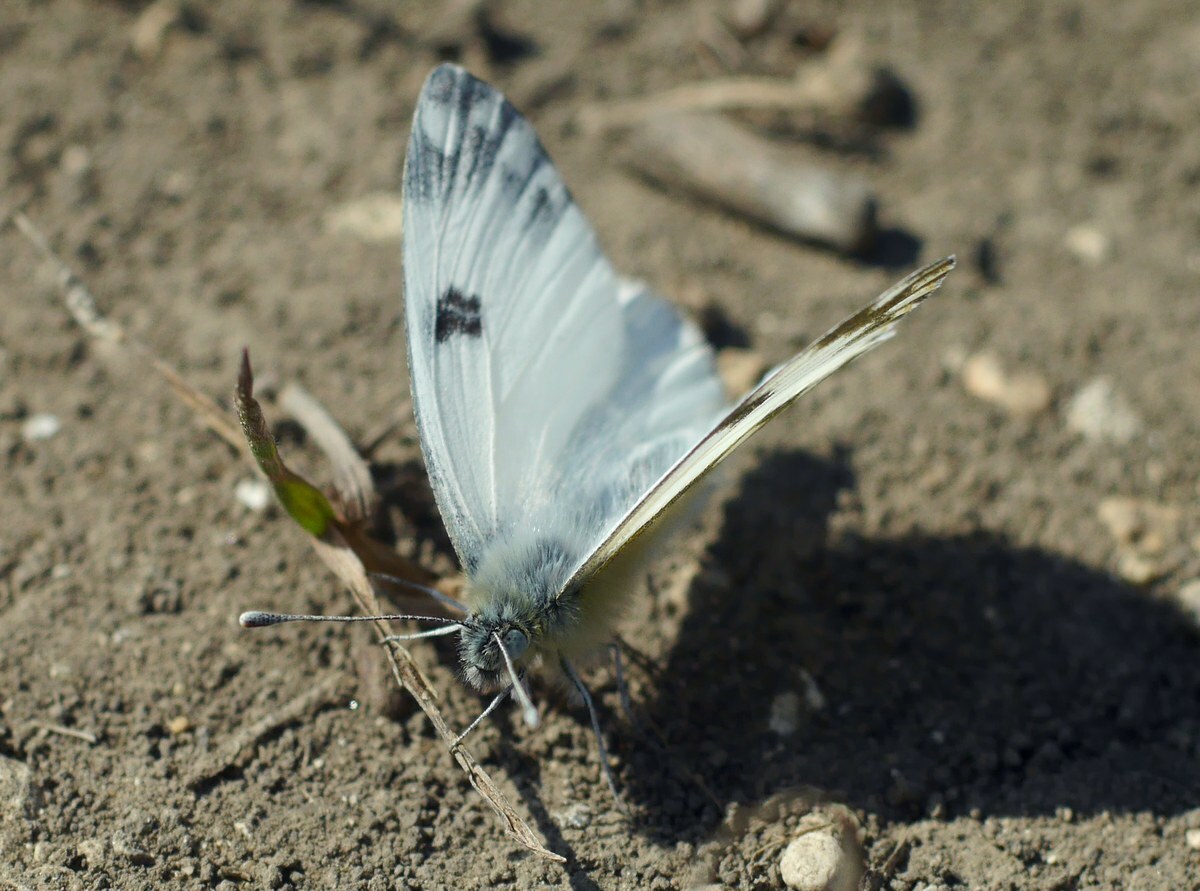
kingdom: Animalia
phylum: Arthropoda
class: Insecta
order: Lepidoptera
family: Pieridae
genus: Pontia
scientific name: Pontia edusa
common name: Eastern bath white
